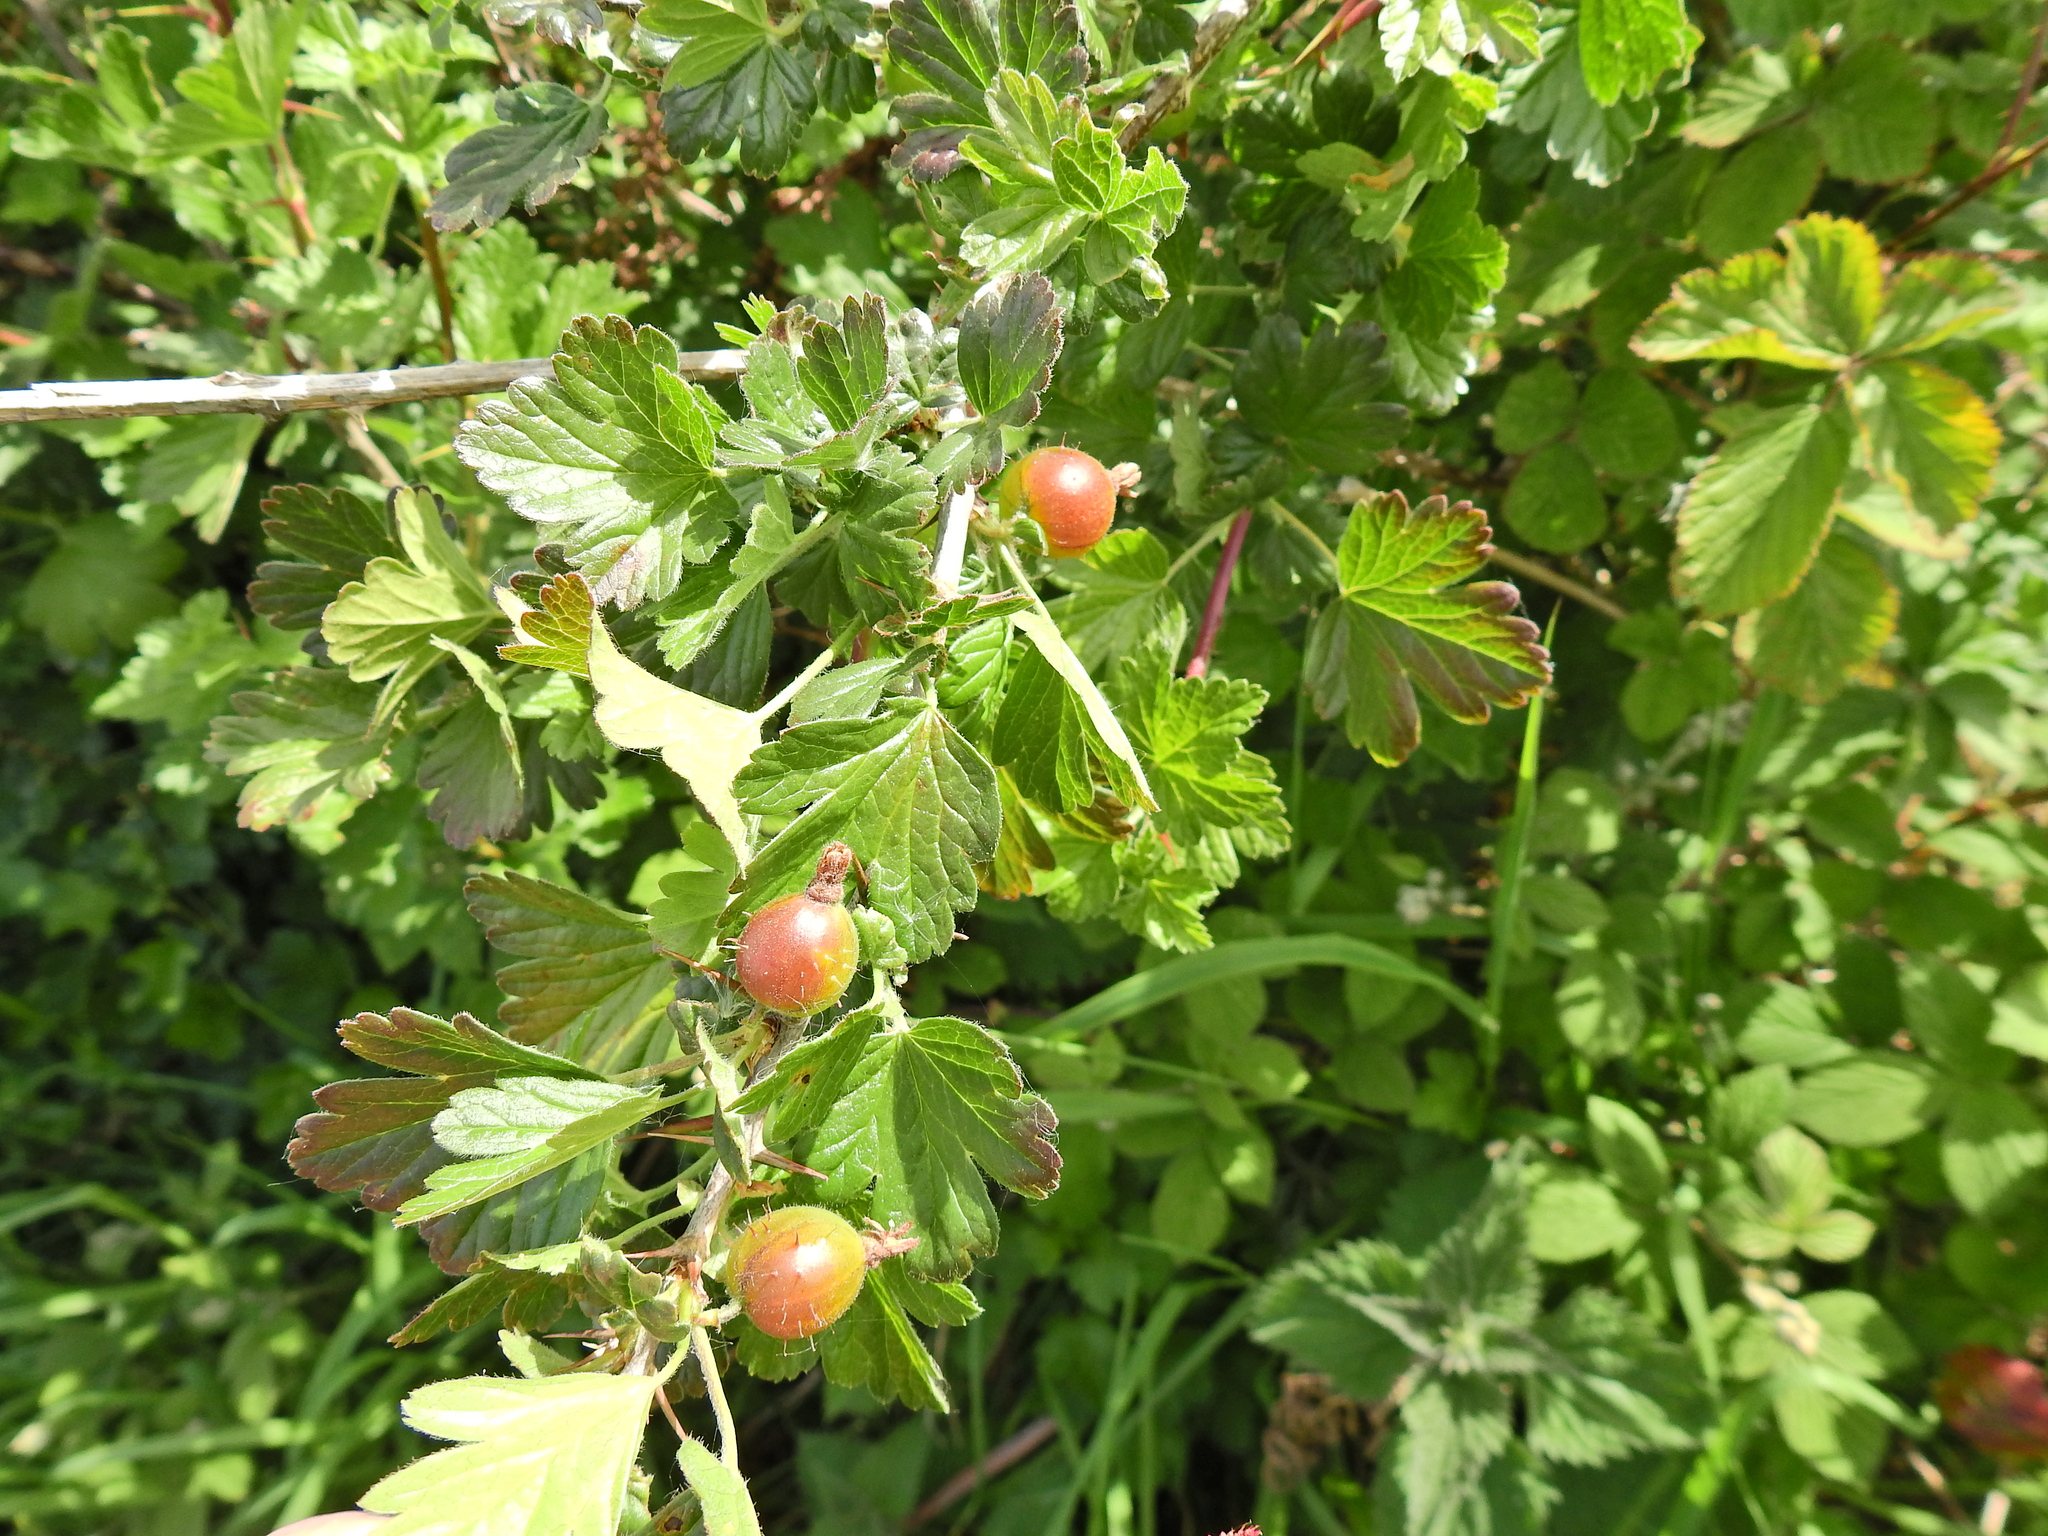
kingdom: Plantae
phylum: Tracheophyta
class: Magnoliopsida
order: Saxifragales
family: Grossulariaceae
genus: Ribes
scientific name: Ribes uva-crispa
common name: Gooseberry
